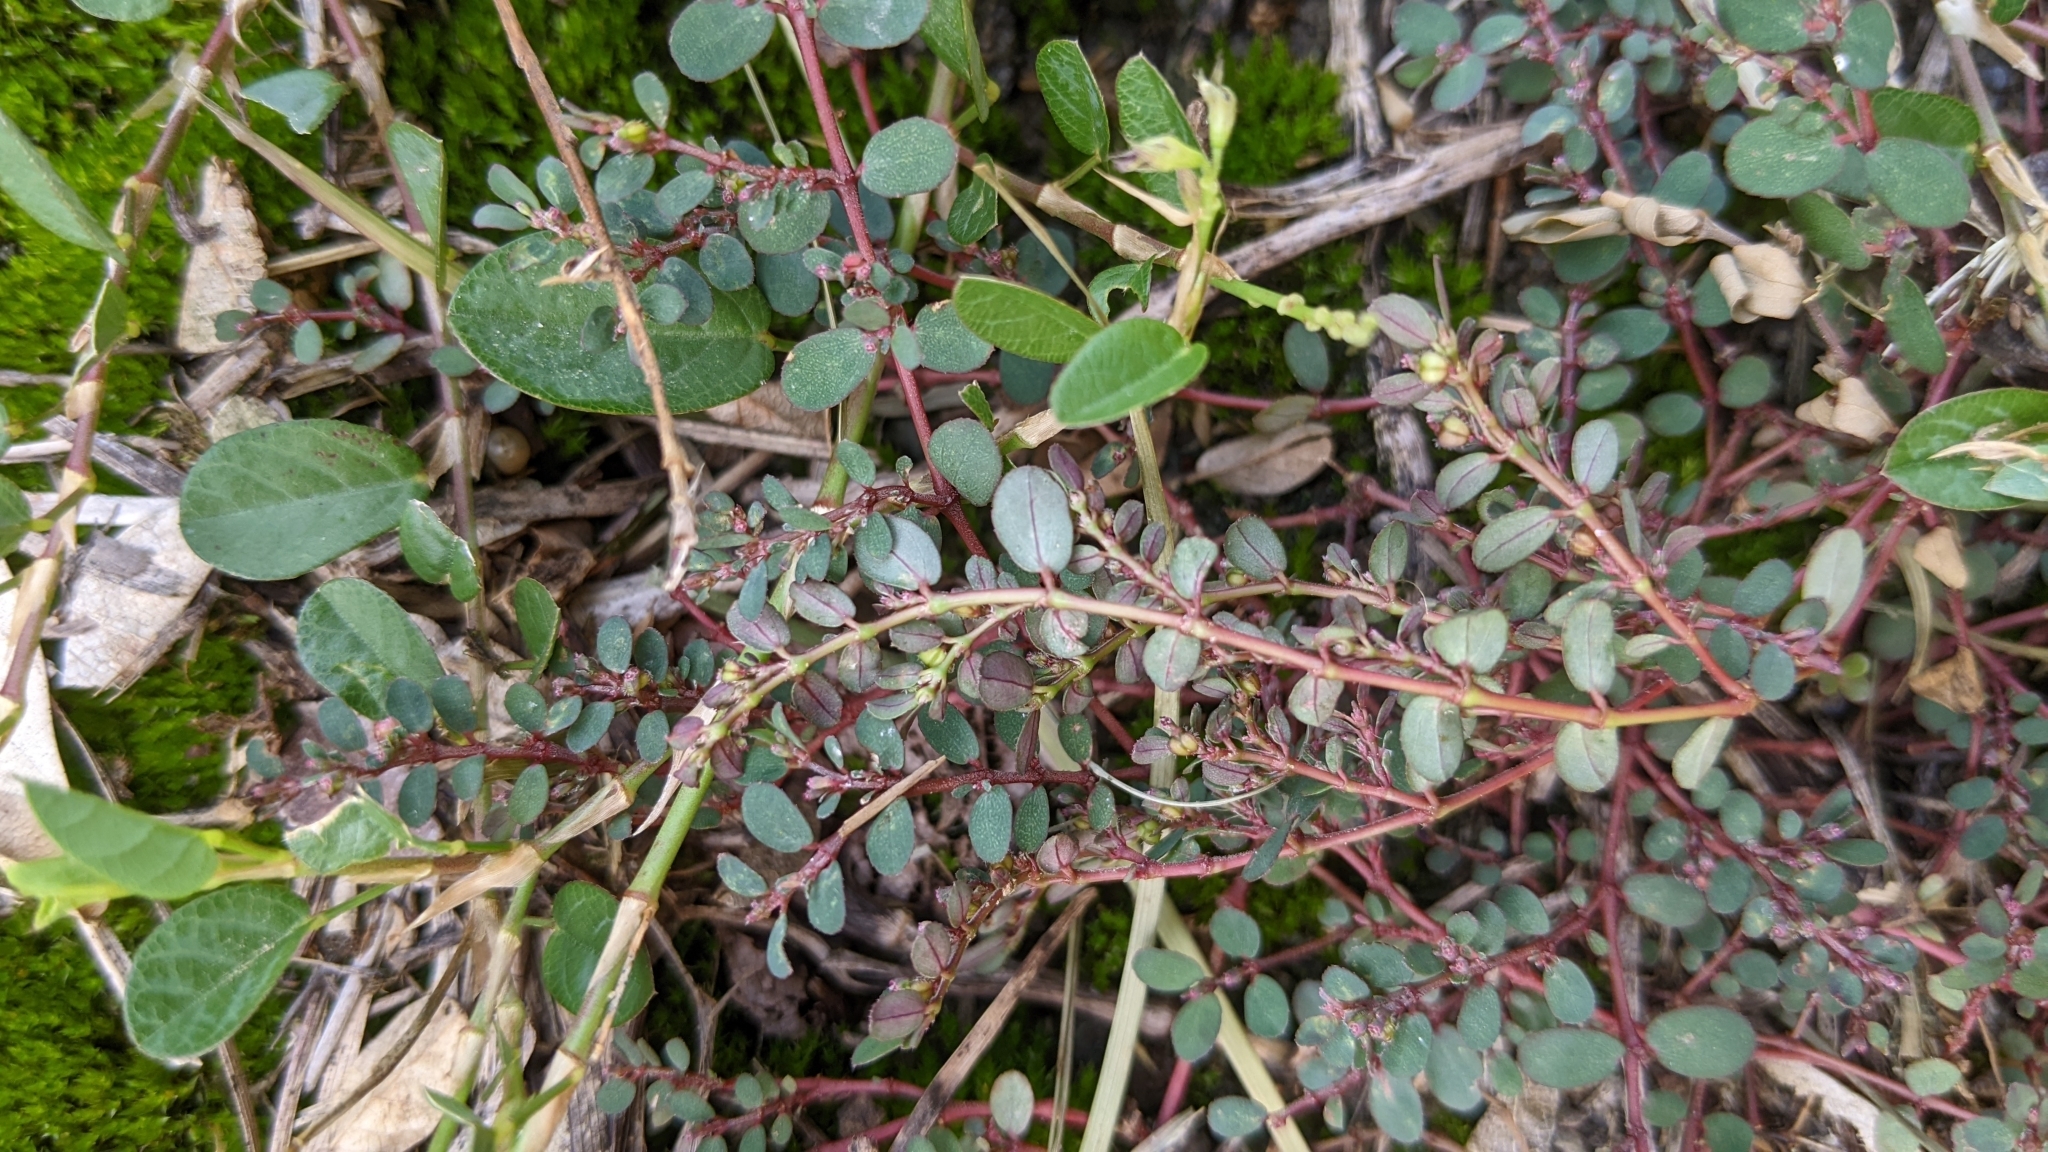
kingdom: Plantae
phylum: Tracheophyta
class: Magnoliopsida
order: Malpighiales
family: Euphorbiaceae
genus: Euphorbia
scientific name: Euphorbia prostrata
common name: Prostrate sandmat
